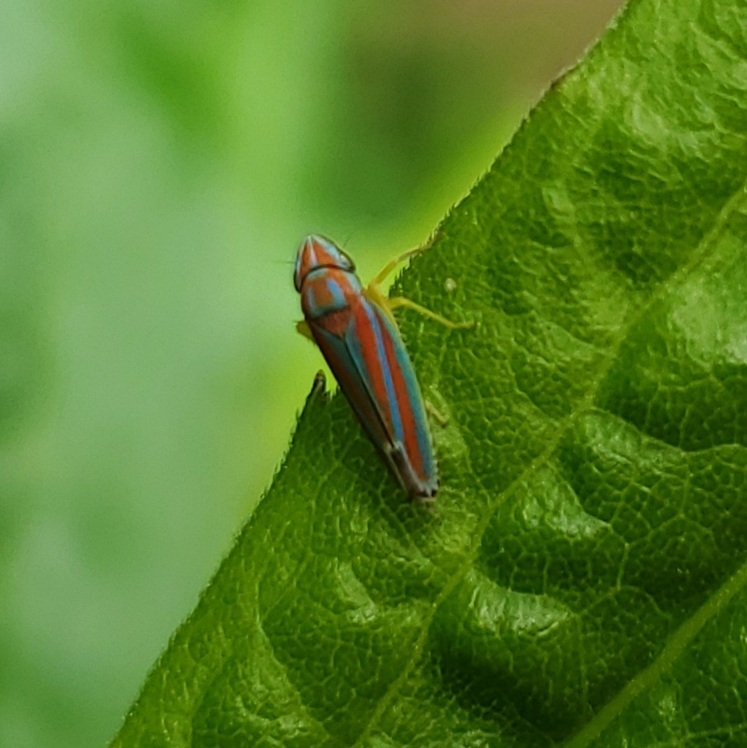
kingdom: Animalia
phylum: Arthropoda
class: Insecta
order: Hemiptera
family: Cicadellidae
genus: Graphocephala
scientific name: Graphocephala versuta
